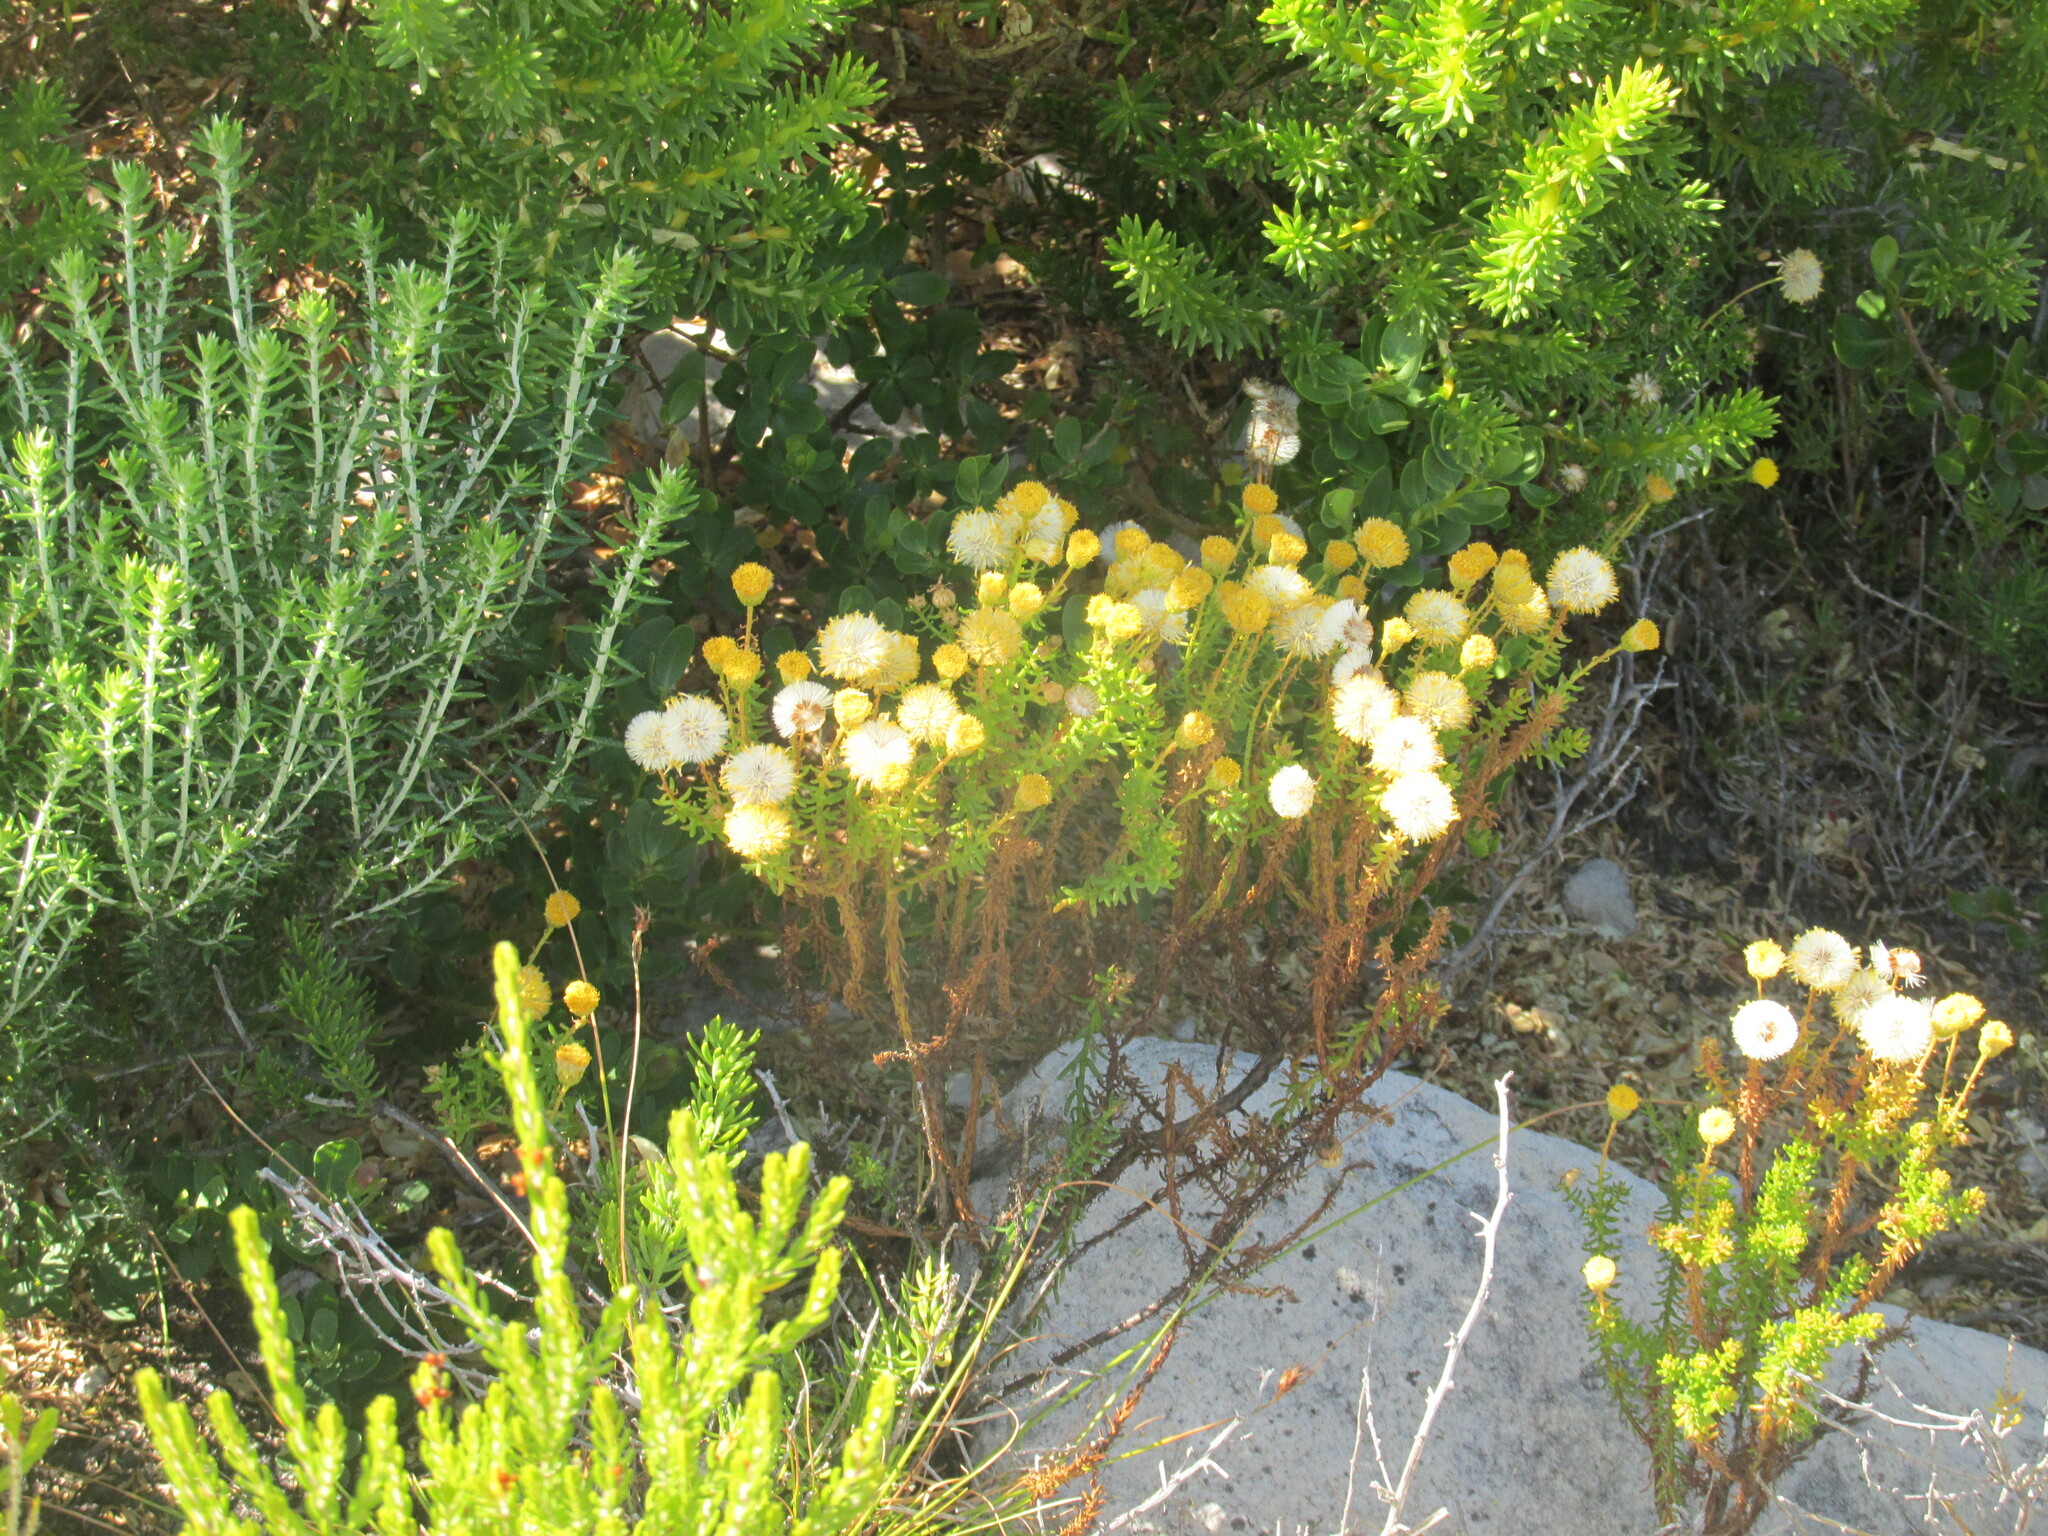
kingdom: Plantae
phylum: Tracheophyta
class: Magnoliopsida
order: Asterales
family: Asteraceae
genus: Chrysocoma
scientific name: Chrysocoma cernua
